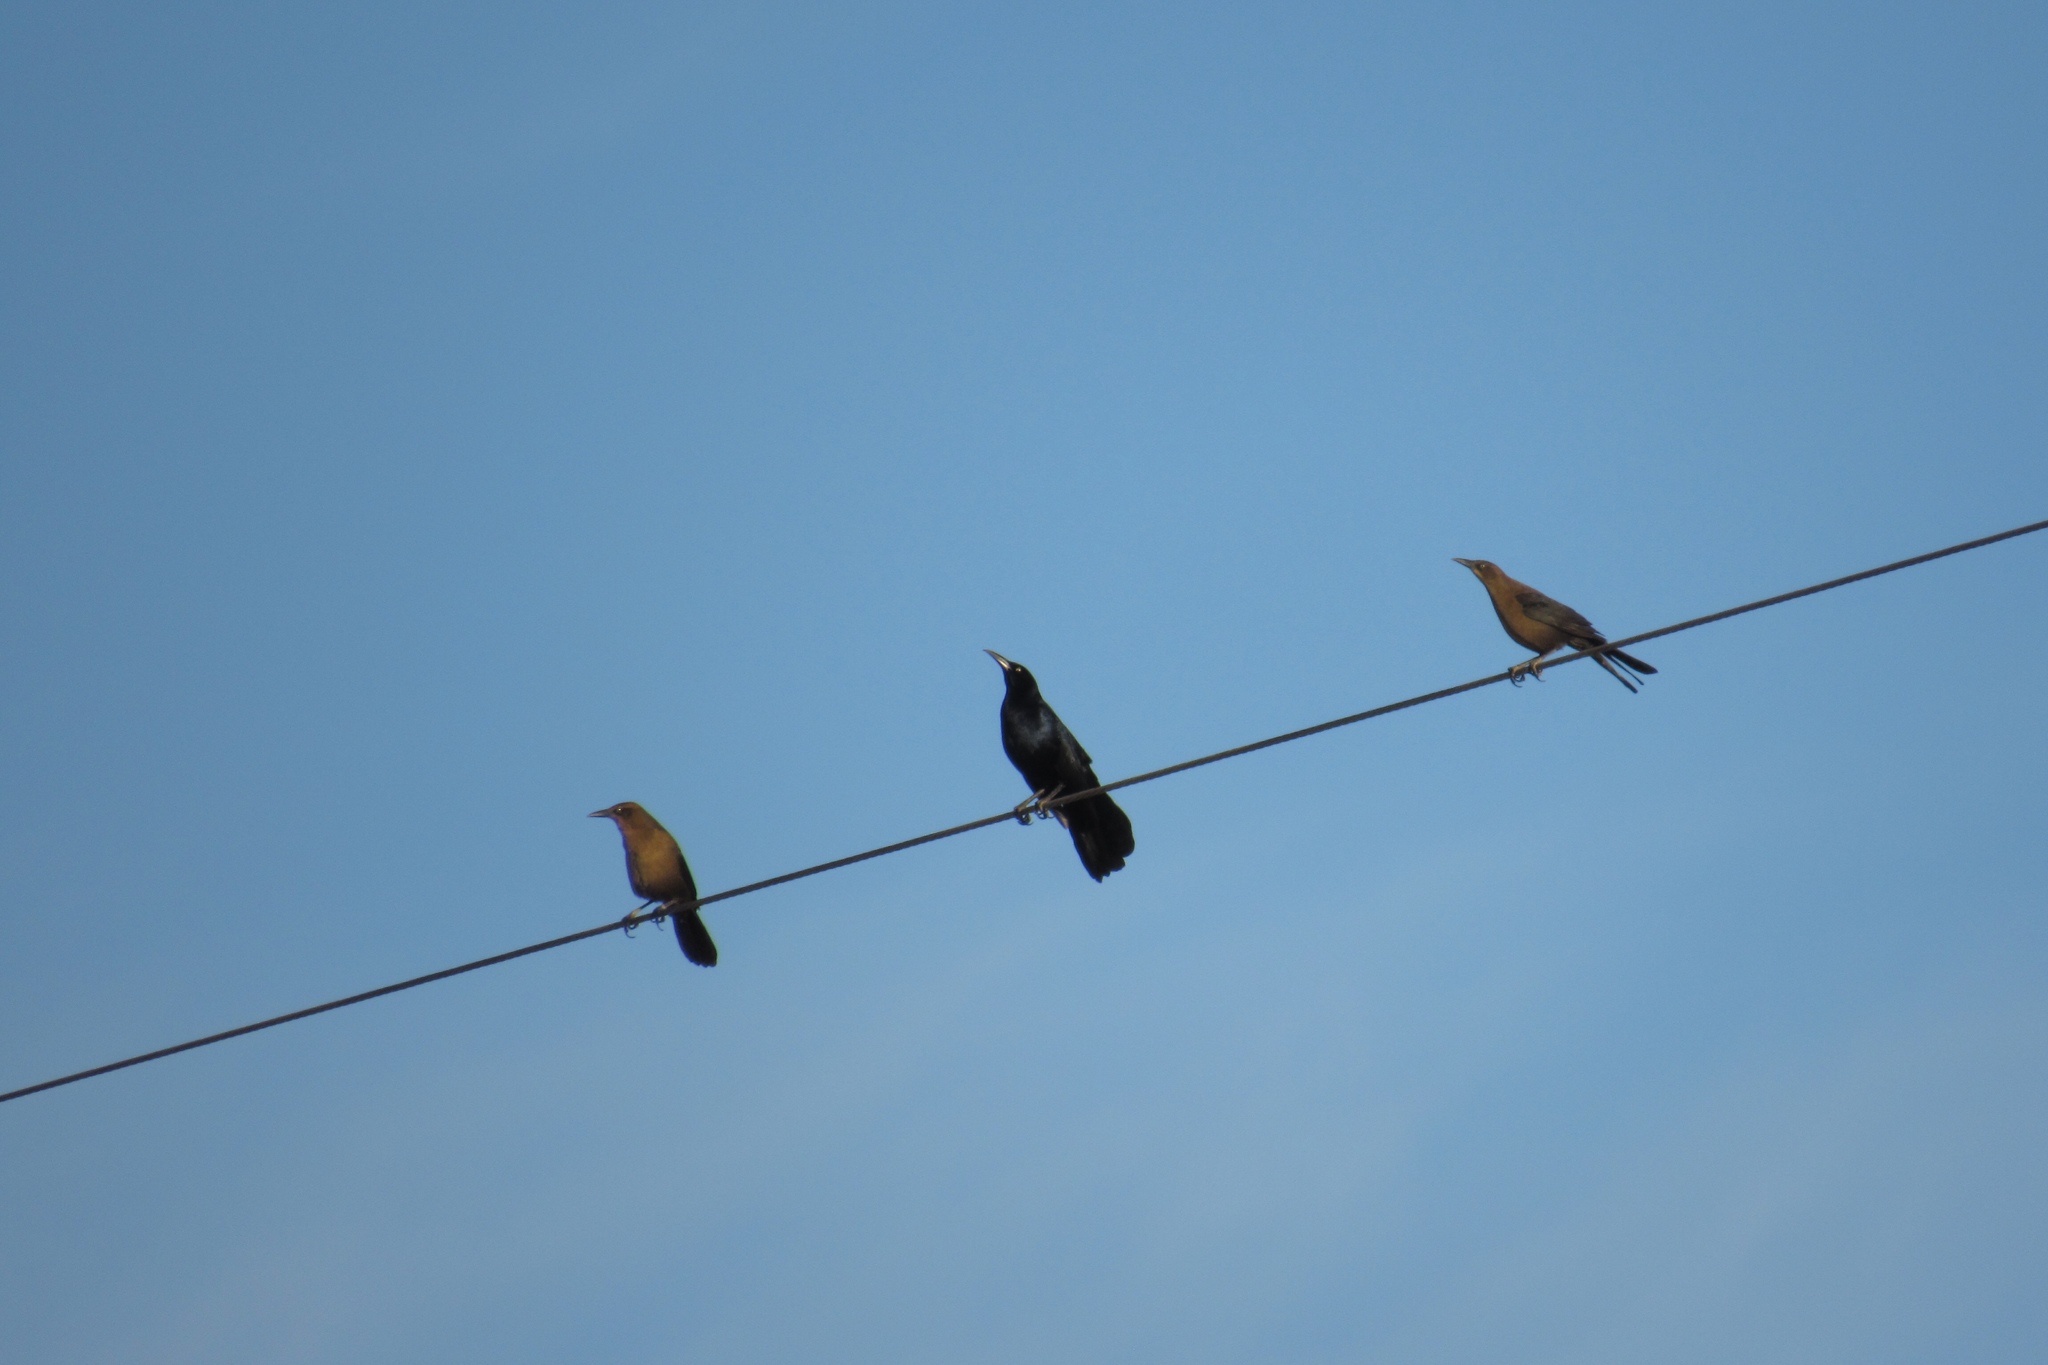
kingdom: Animalia
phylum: Chordata
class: Aves
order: Passeriformes
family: Icteridae
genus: Quiscalus
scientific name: Quiscalus mexicanus
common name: Great-tailed grackle
